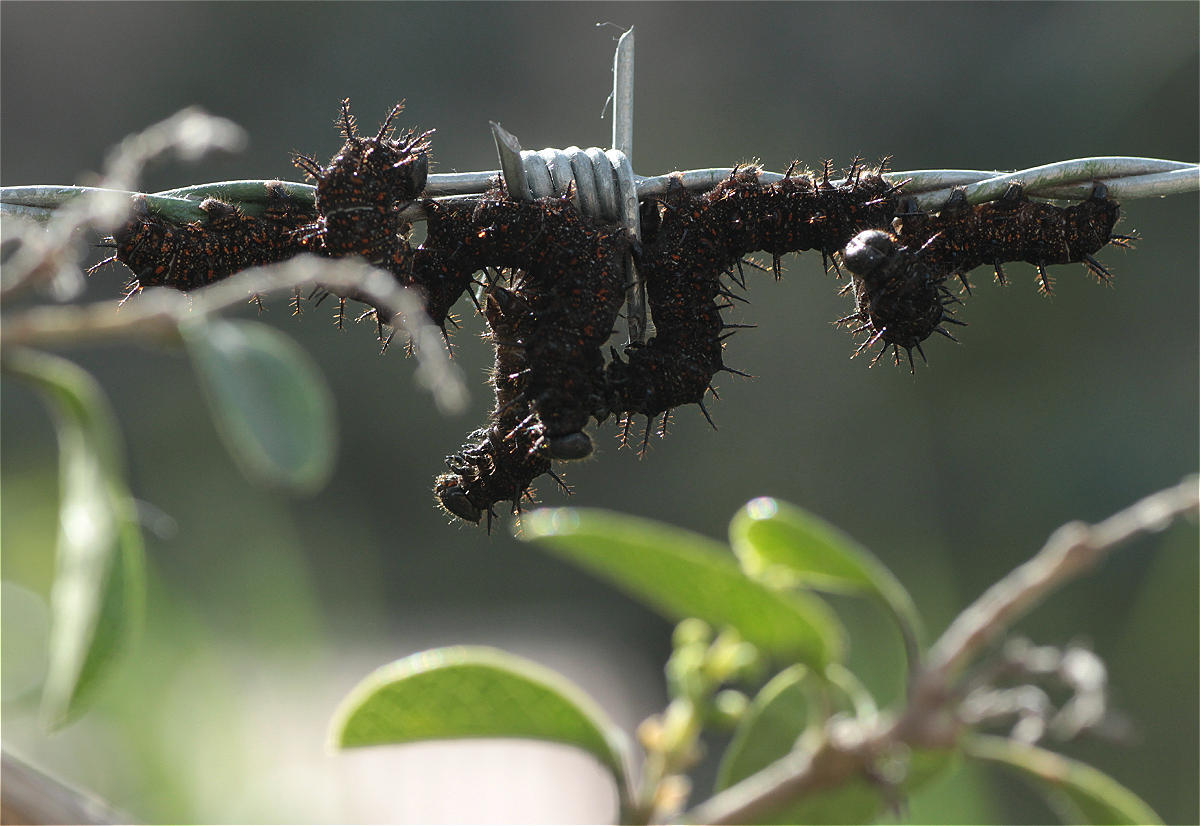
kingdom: Animalia
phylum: Arthropoda
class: Insecta
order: Lepidoptera
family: Nymphalidae
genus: Dione
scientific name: Dione juno
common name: Juno silverspot
